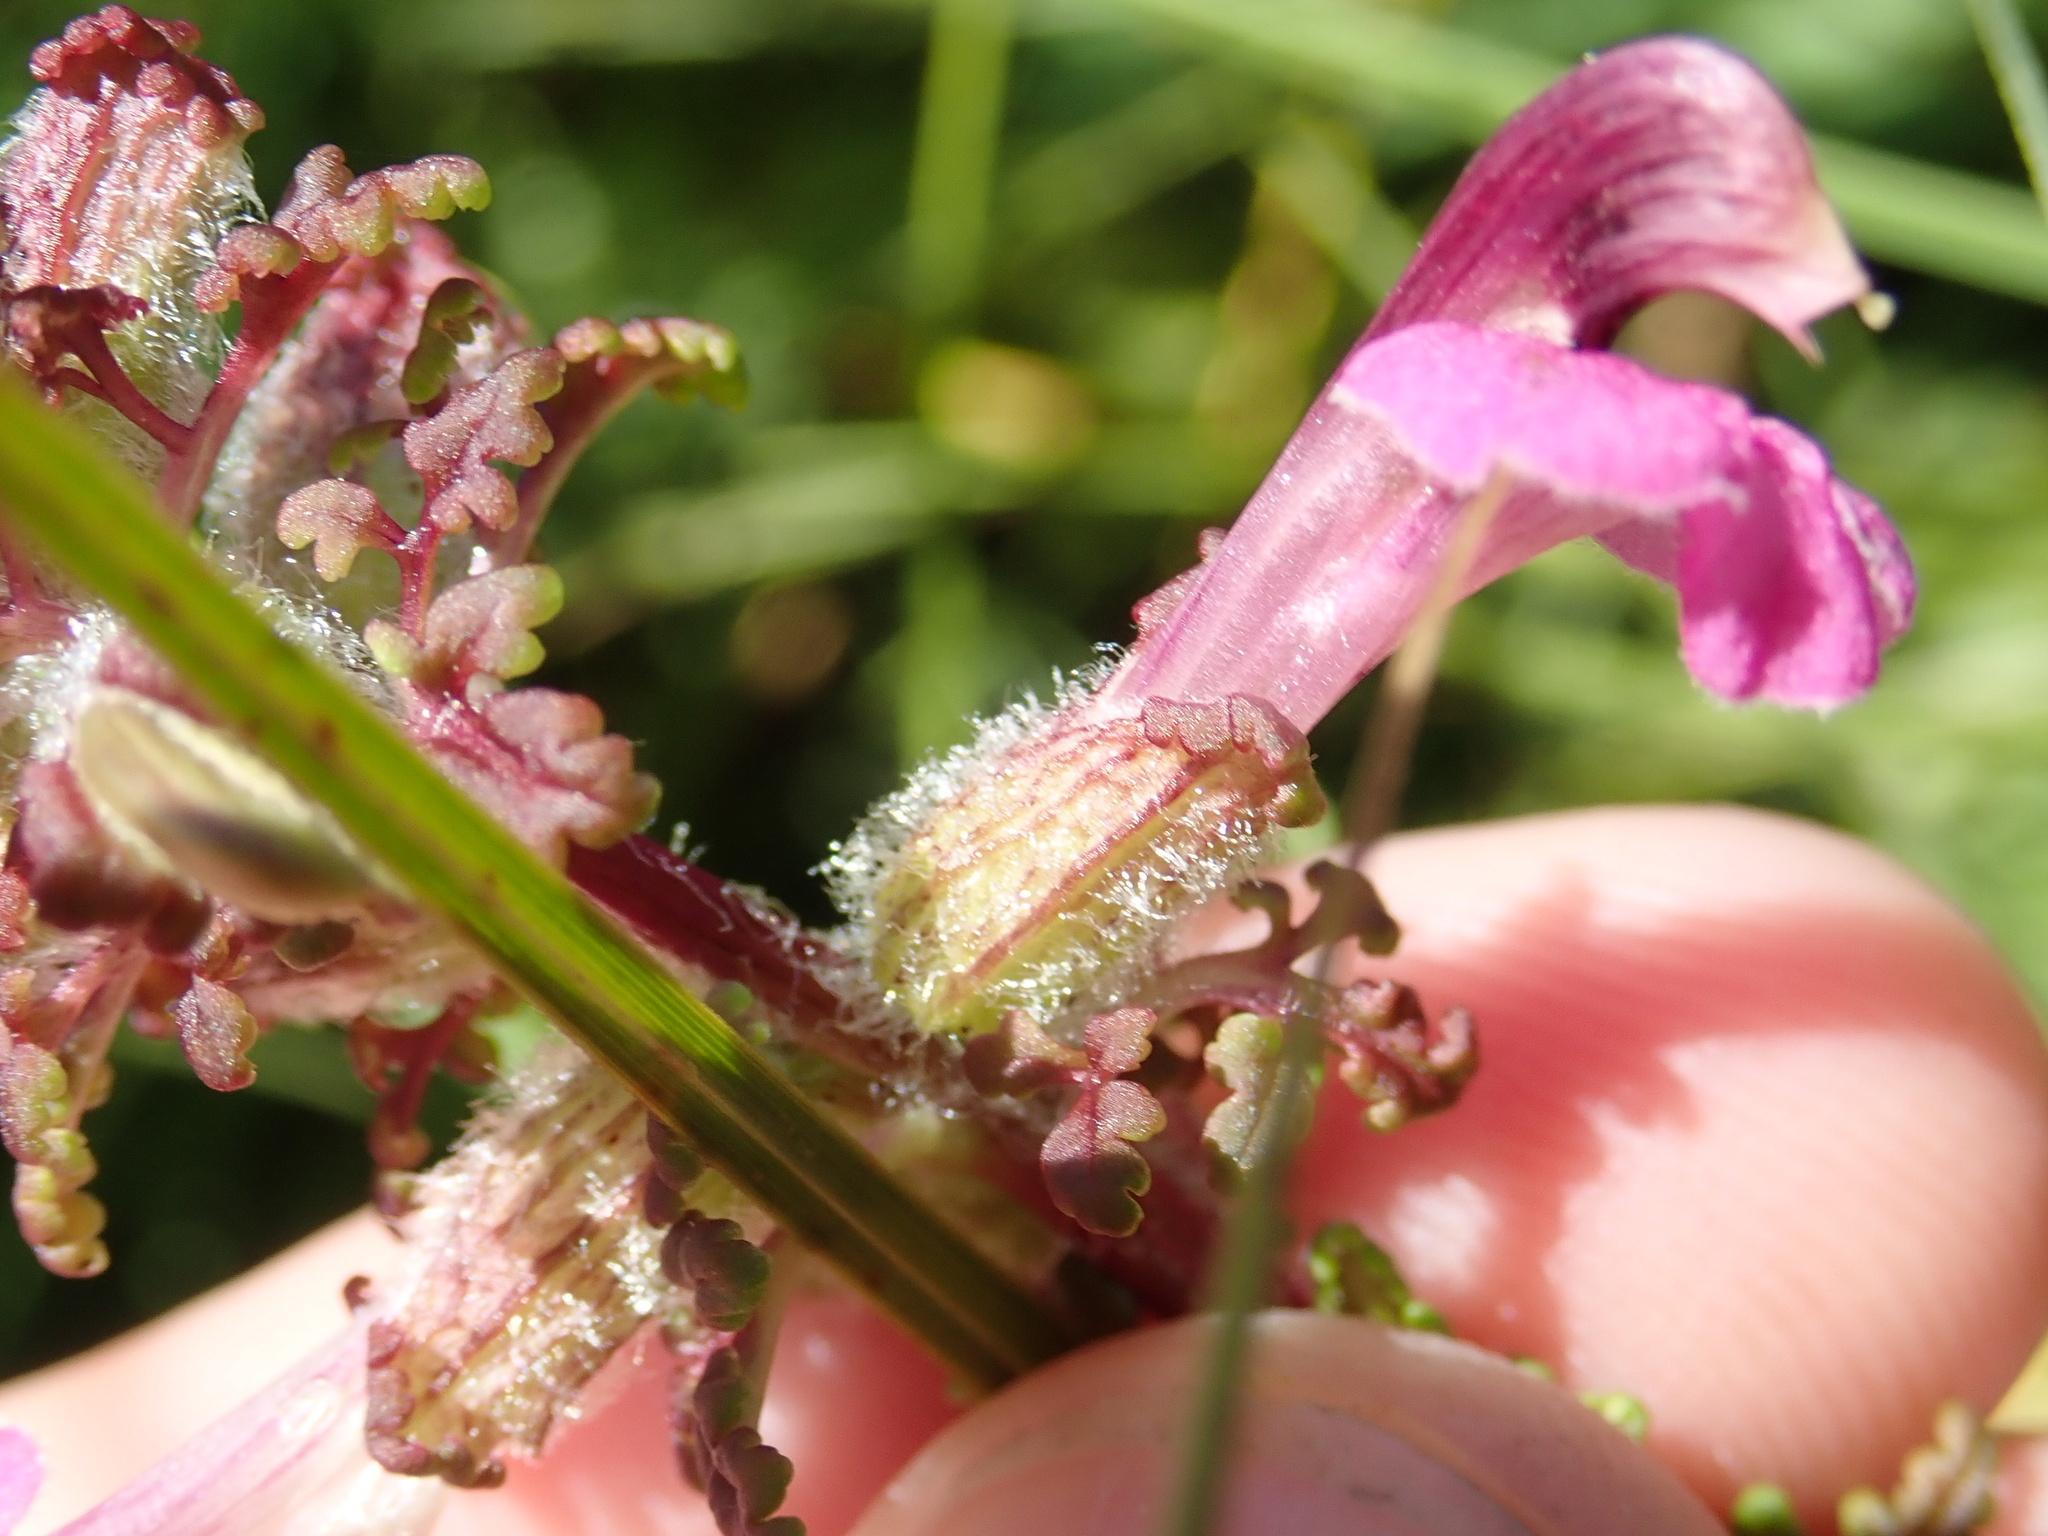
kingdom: Plantae
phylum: Tracheophyta
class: Magnoliopsida
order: Lamiales
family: Orobanchaceae
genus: Pedicularis
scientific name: Pedicularis palustris
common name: Marsh lousewort
